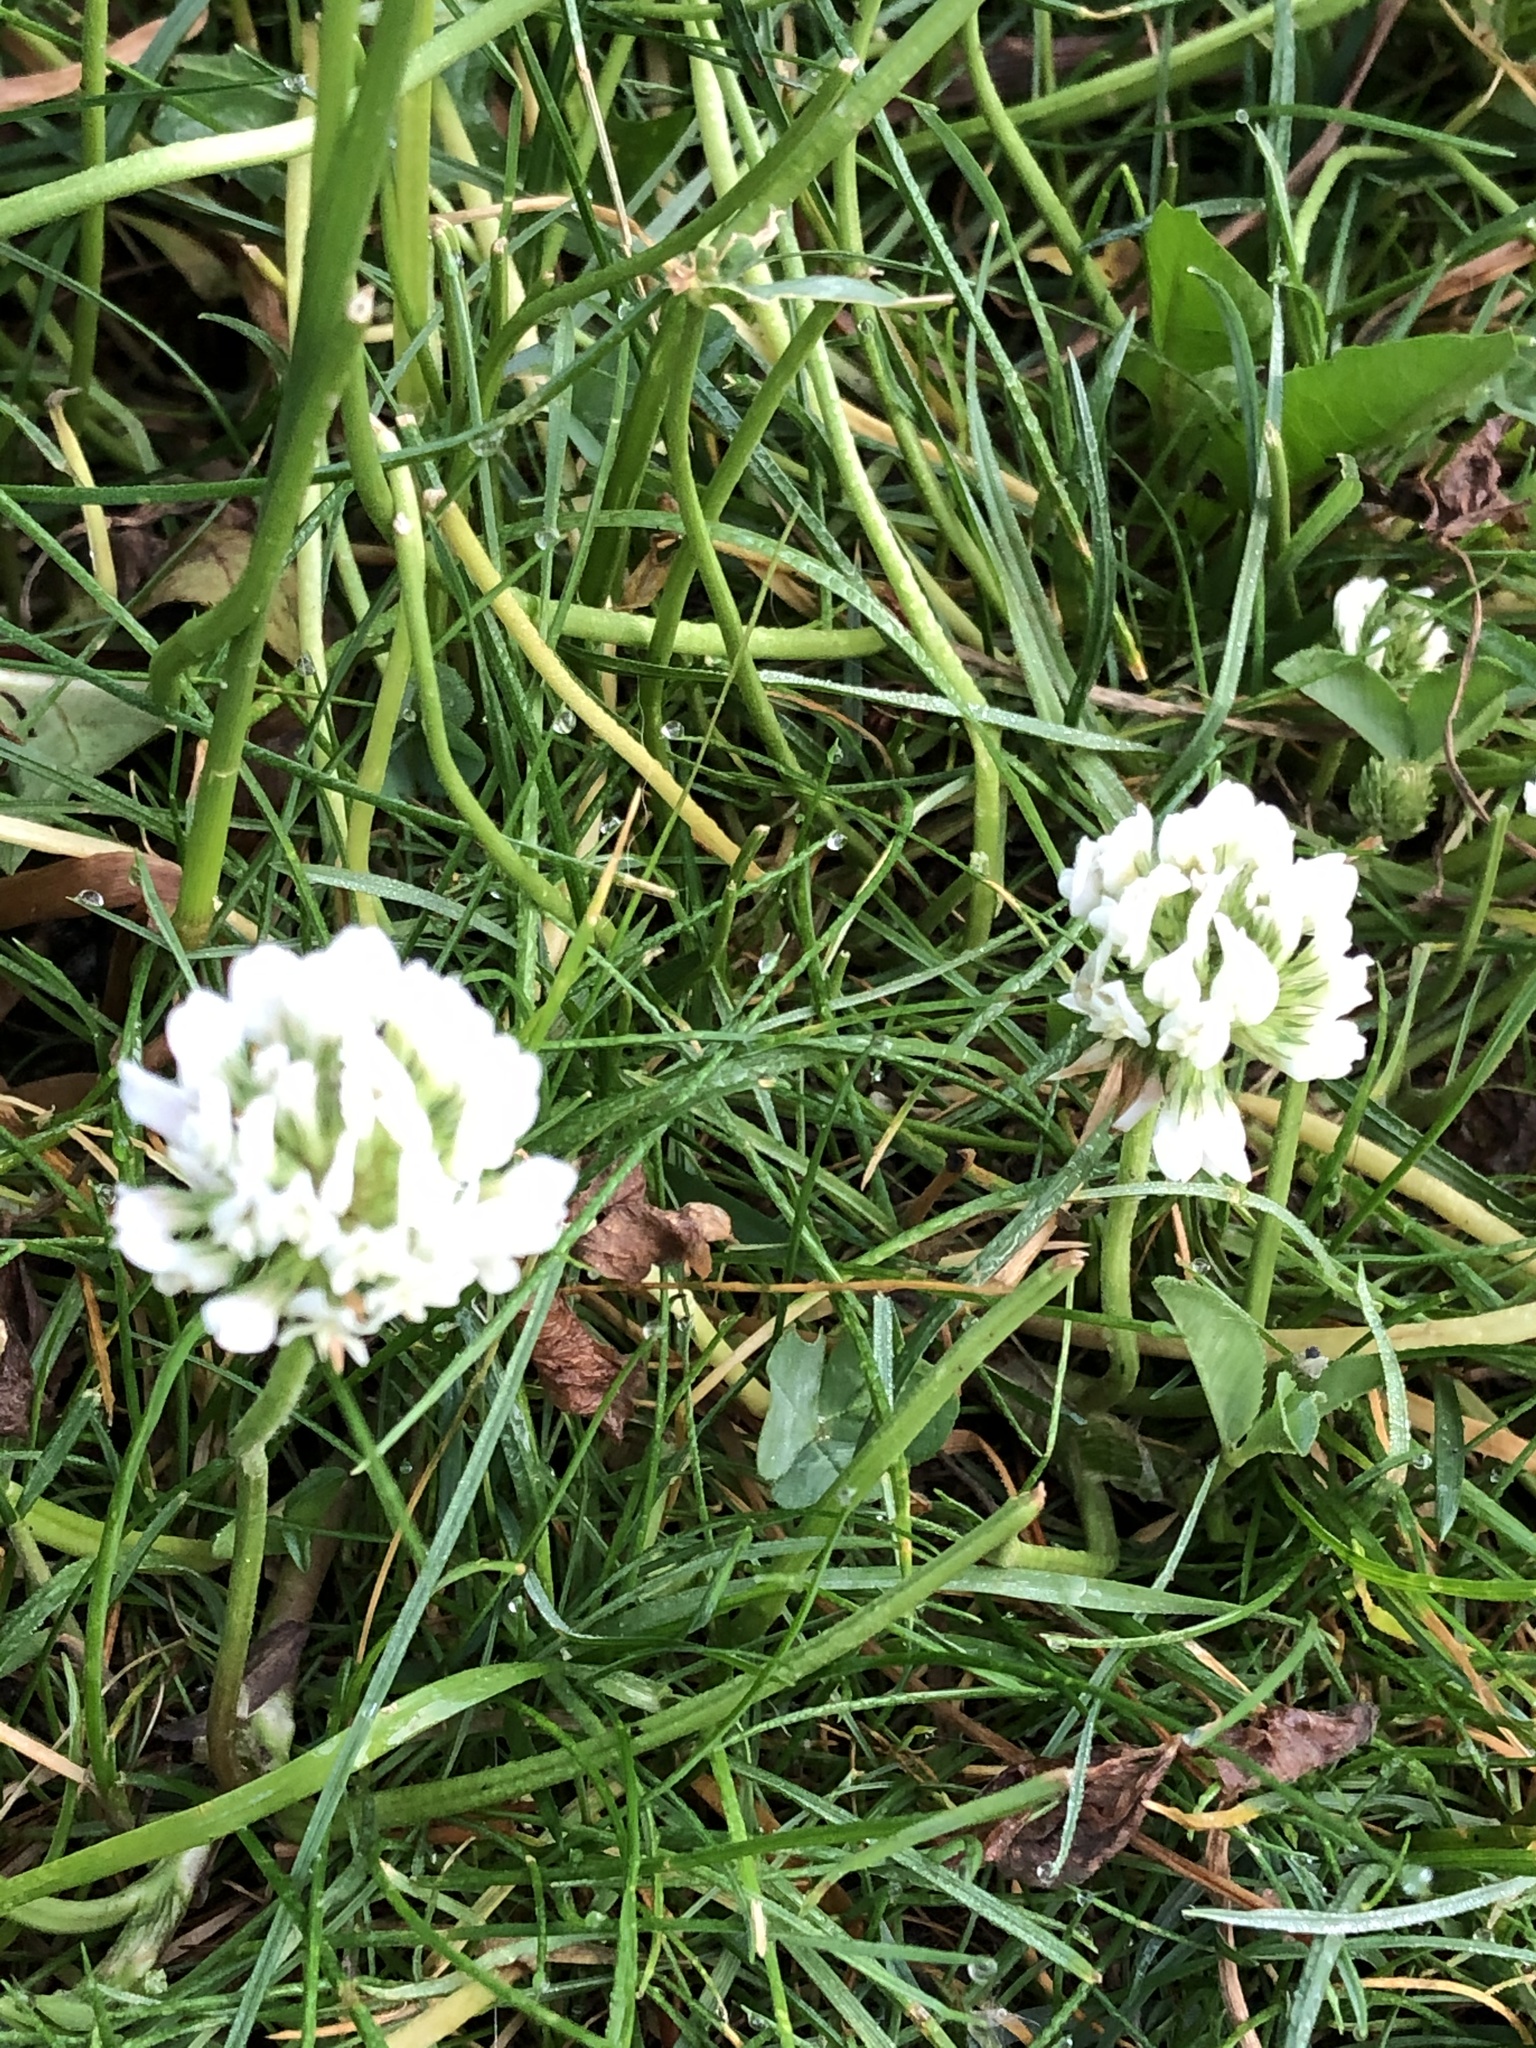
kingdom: Plantae
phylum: Tracheophyta
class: Magnoliopsida
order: Fabales
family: Fabaceae
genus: Trifolium
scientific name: Trifolium repens
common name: White clover
